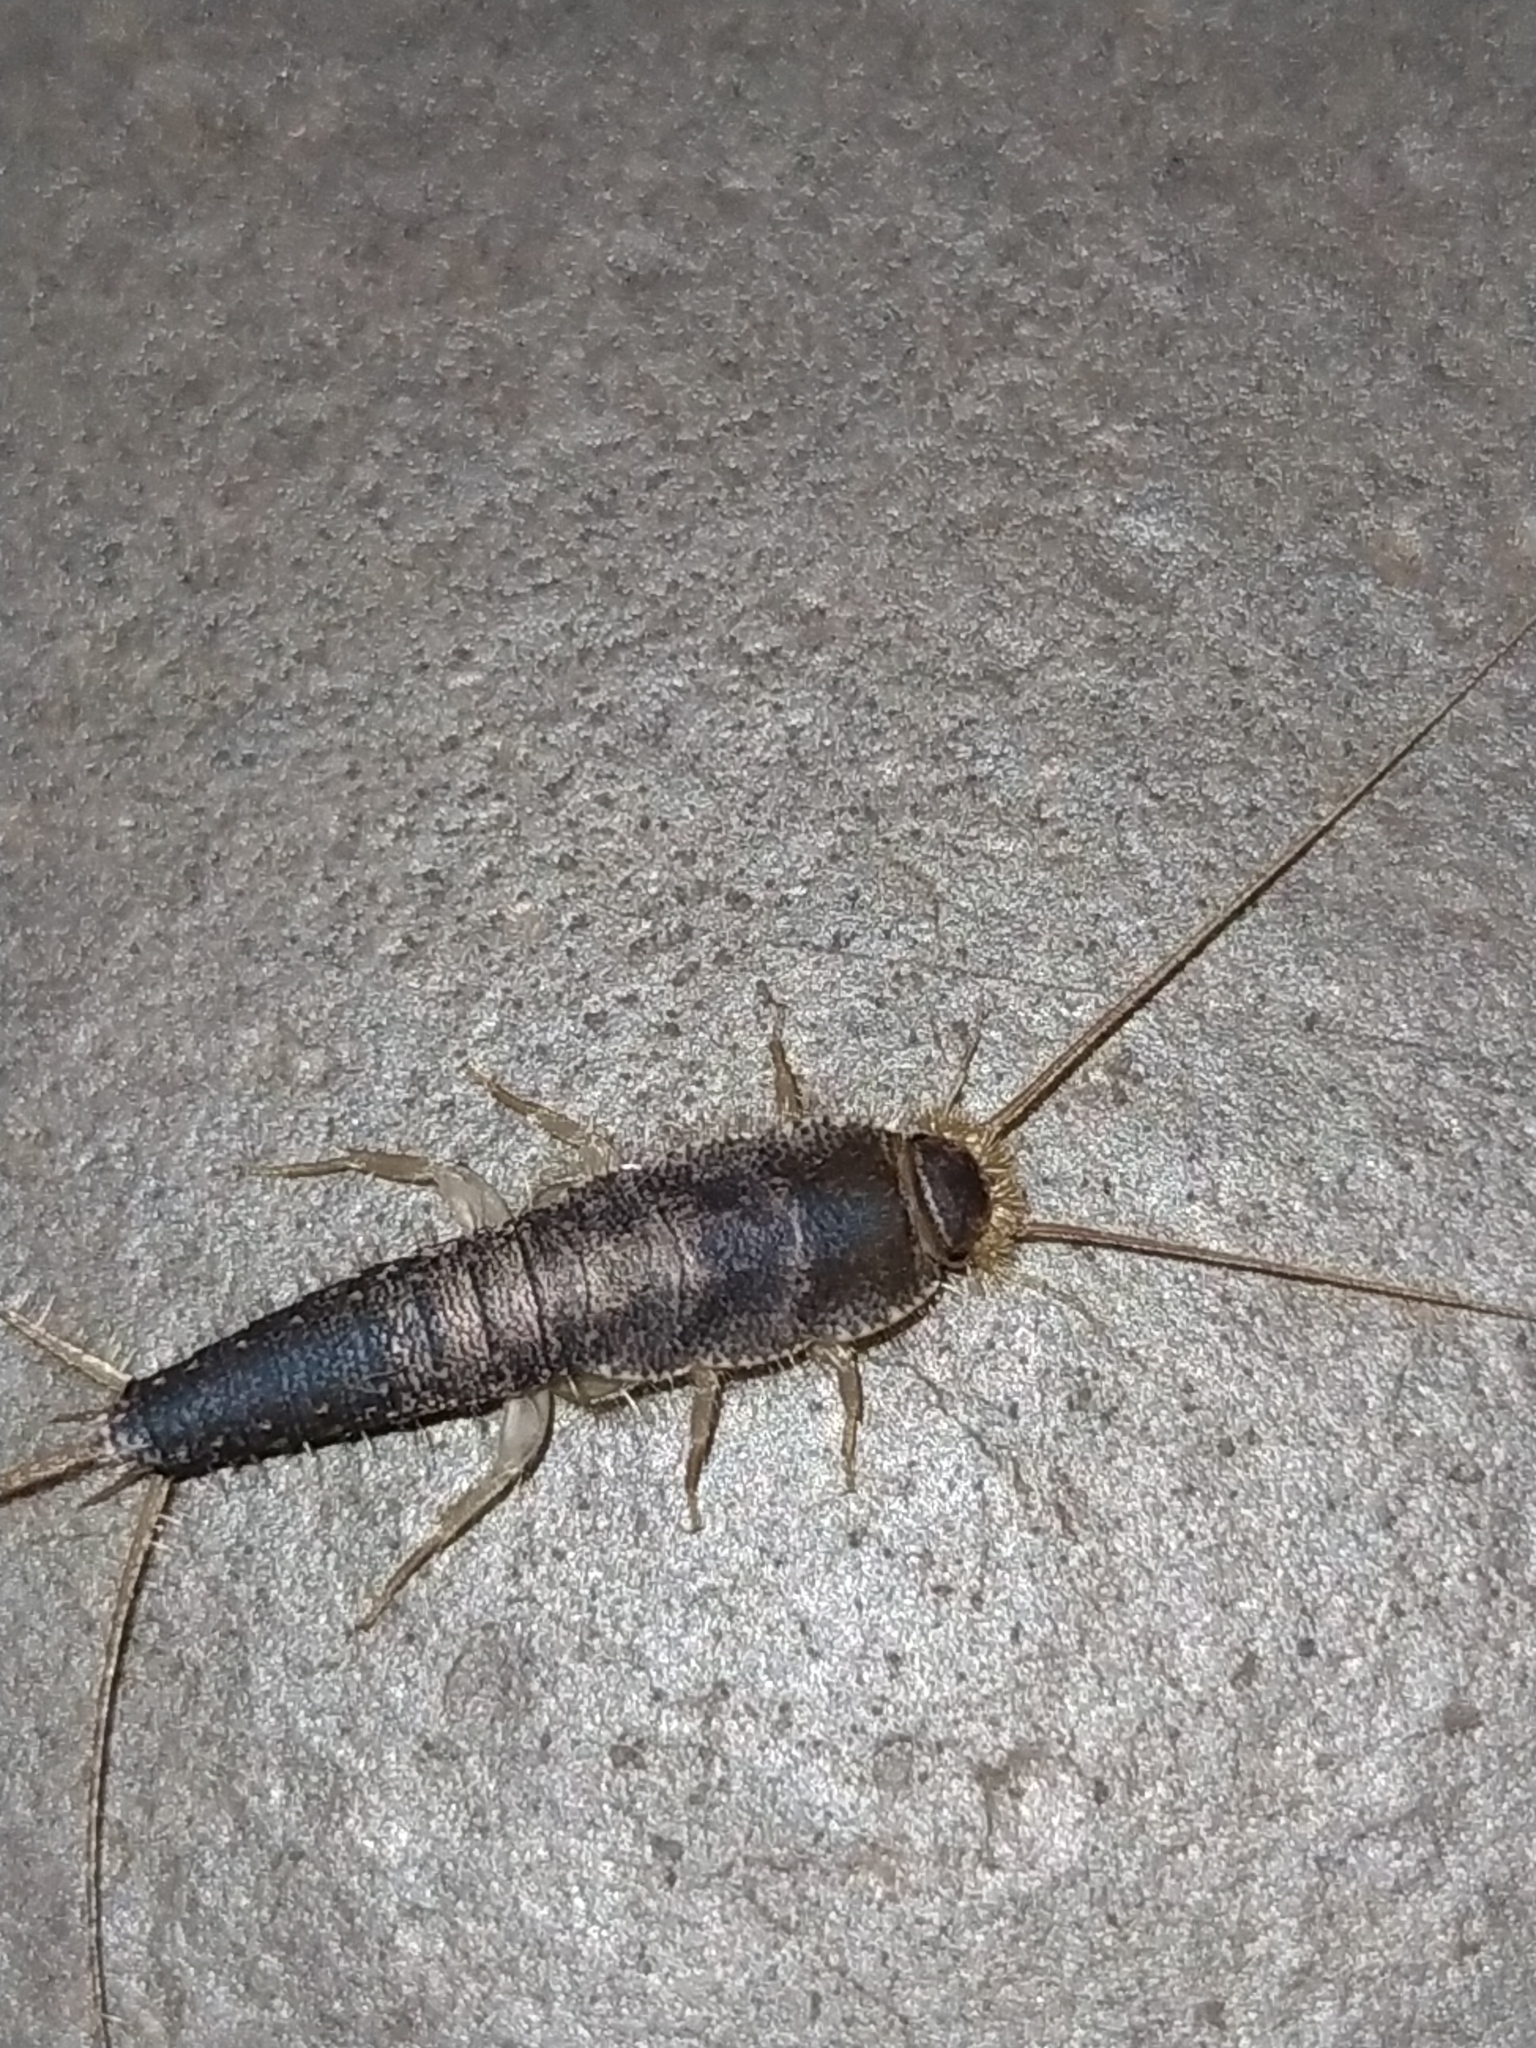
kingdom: Animalia
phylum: Arthropoda
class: Insecta
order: Zygentoma
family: Lepismatidae
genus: Ctenolepisma
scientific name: Ctenolepisma longicaudatum
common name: Silverfish
